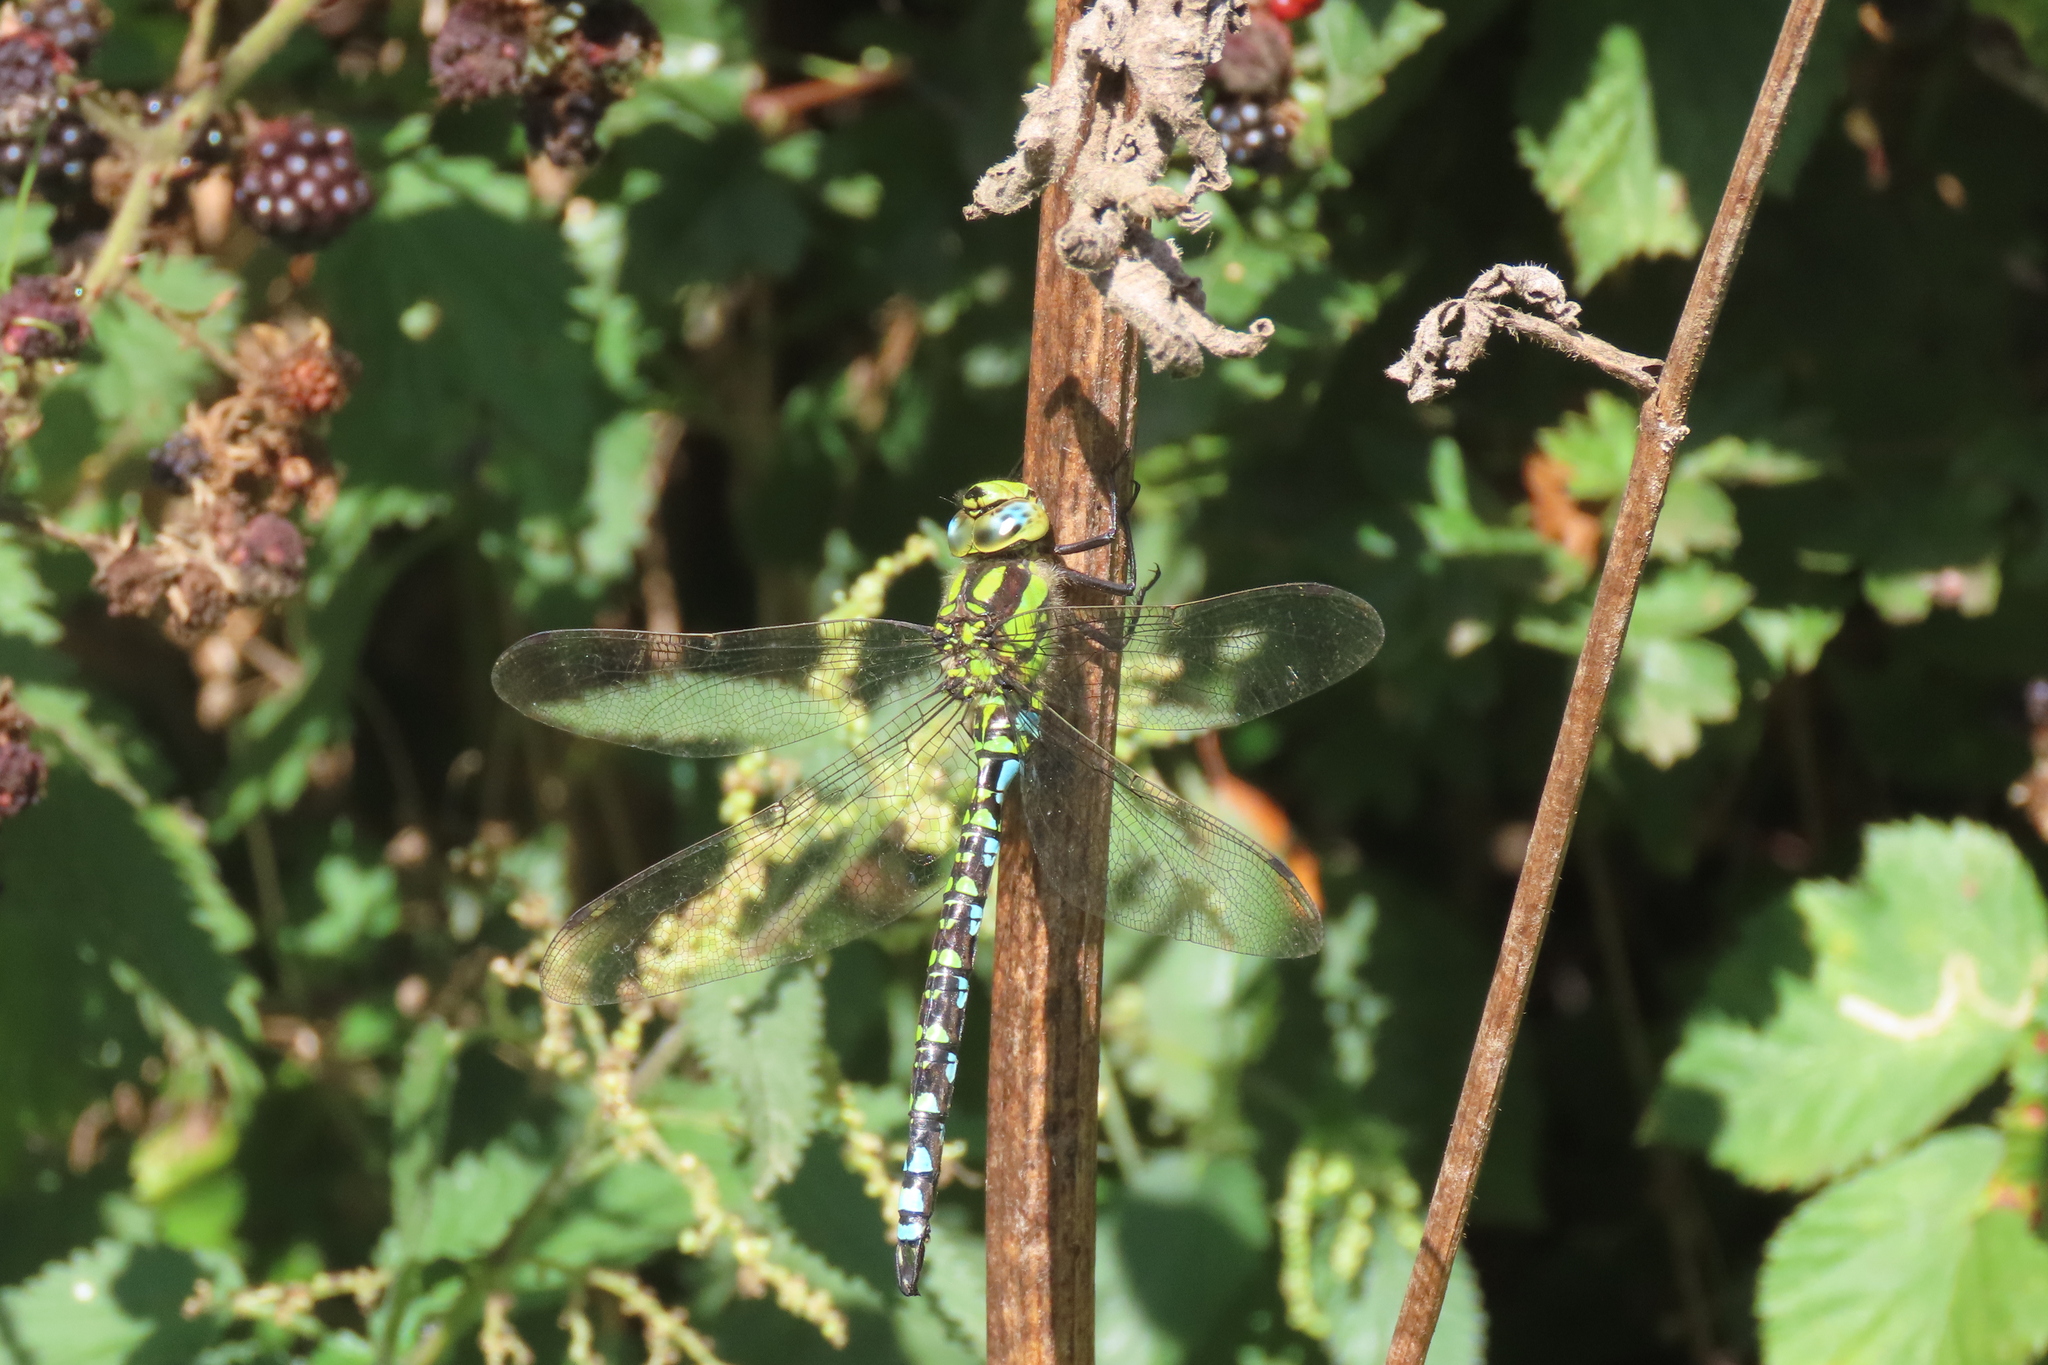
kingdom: Animalia
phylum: Arthropoda
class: Insecta
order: Odonata
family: Aeshnidae
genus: Aeshna
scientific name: Aeshna cyanea
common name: Southern hawker
